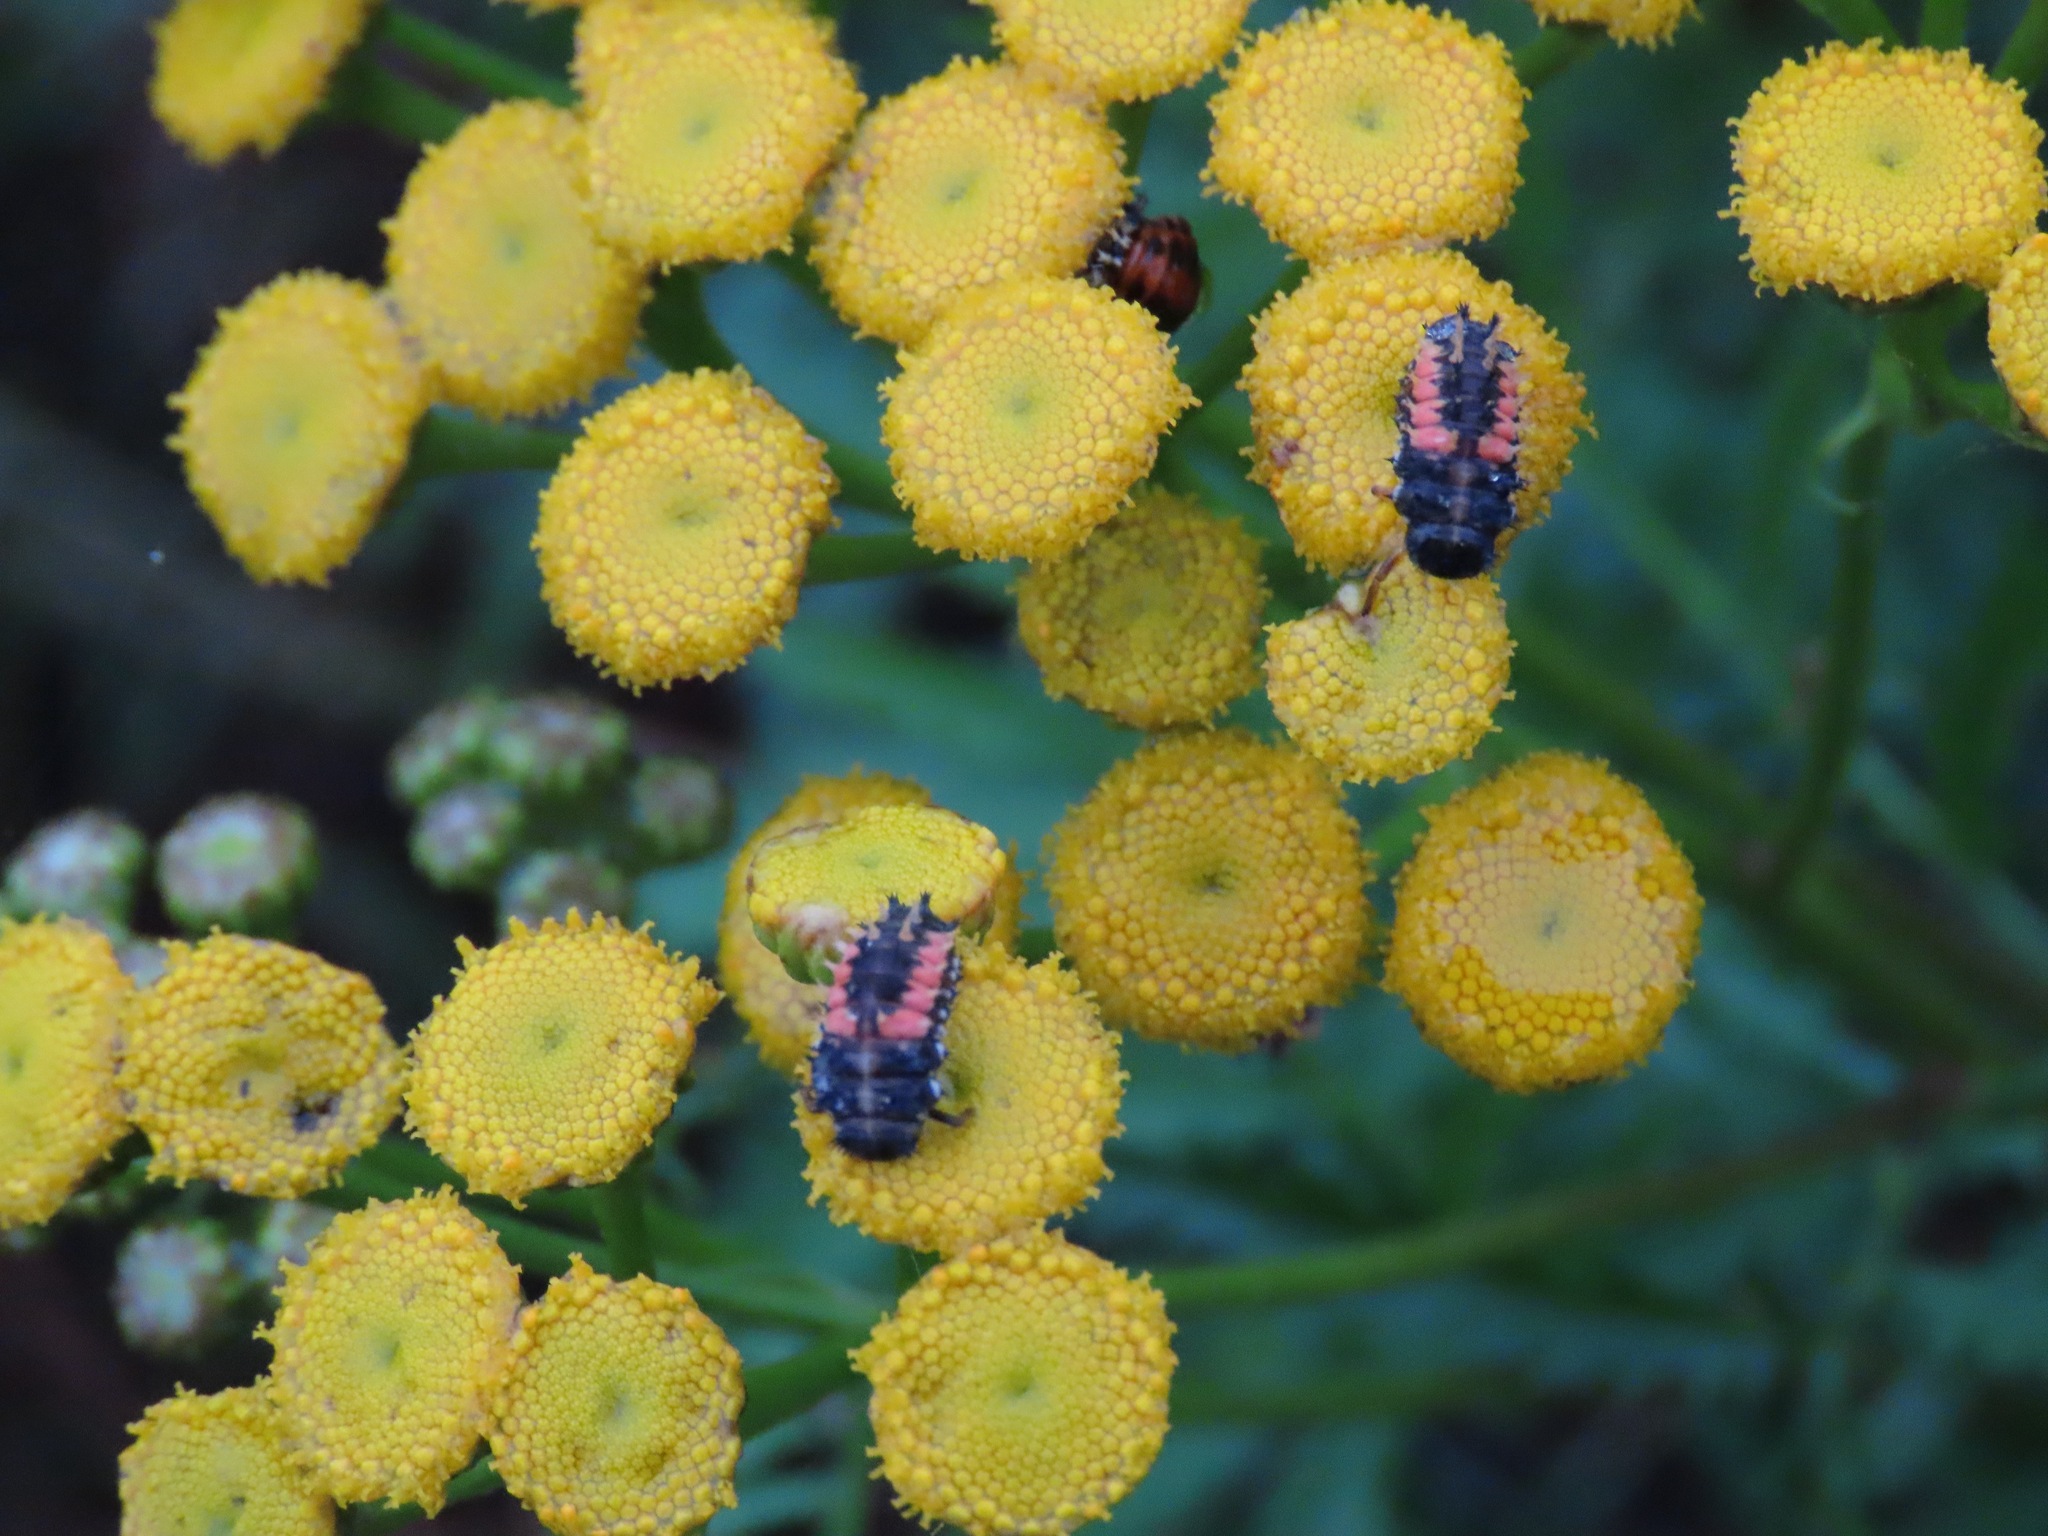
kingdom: Animalia
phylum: Arthropoda
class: Insecta
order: Coleoptera
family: Coccinellidae
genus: Harmonia
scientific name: Harmonia axyridis
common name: Harlequin ladybird
